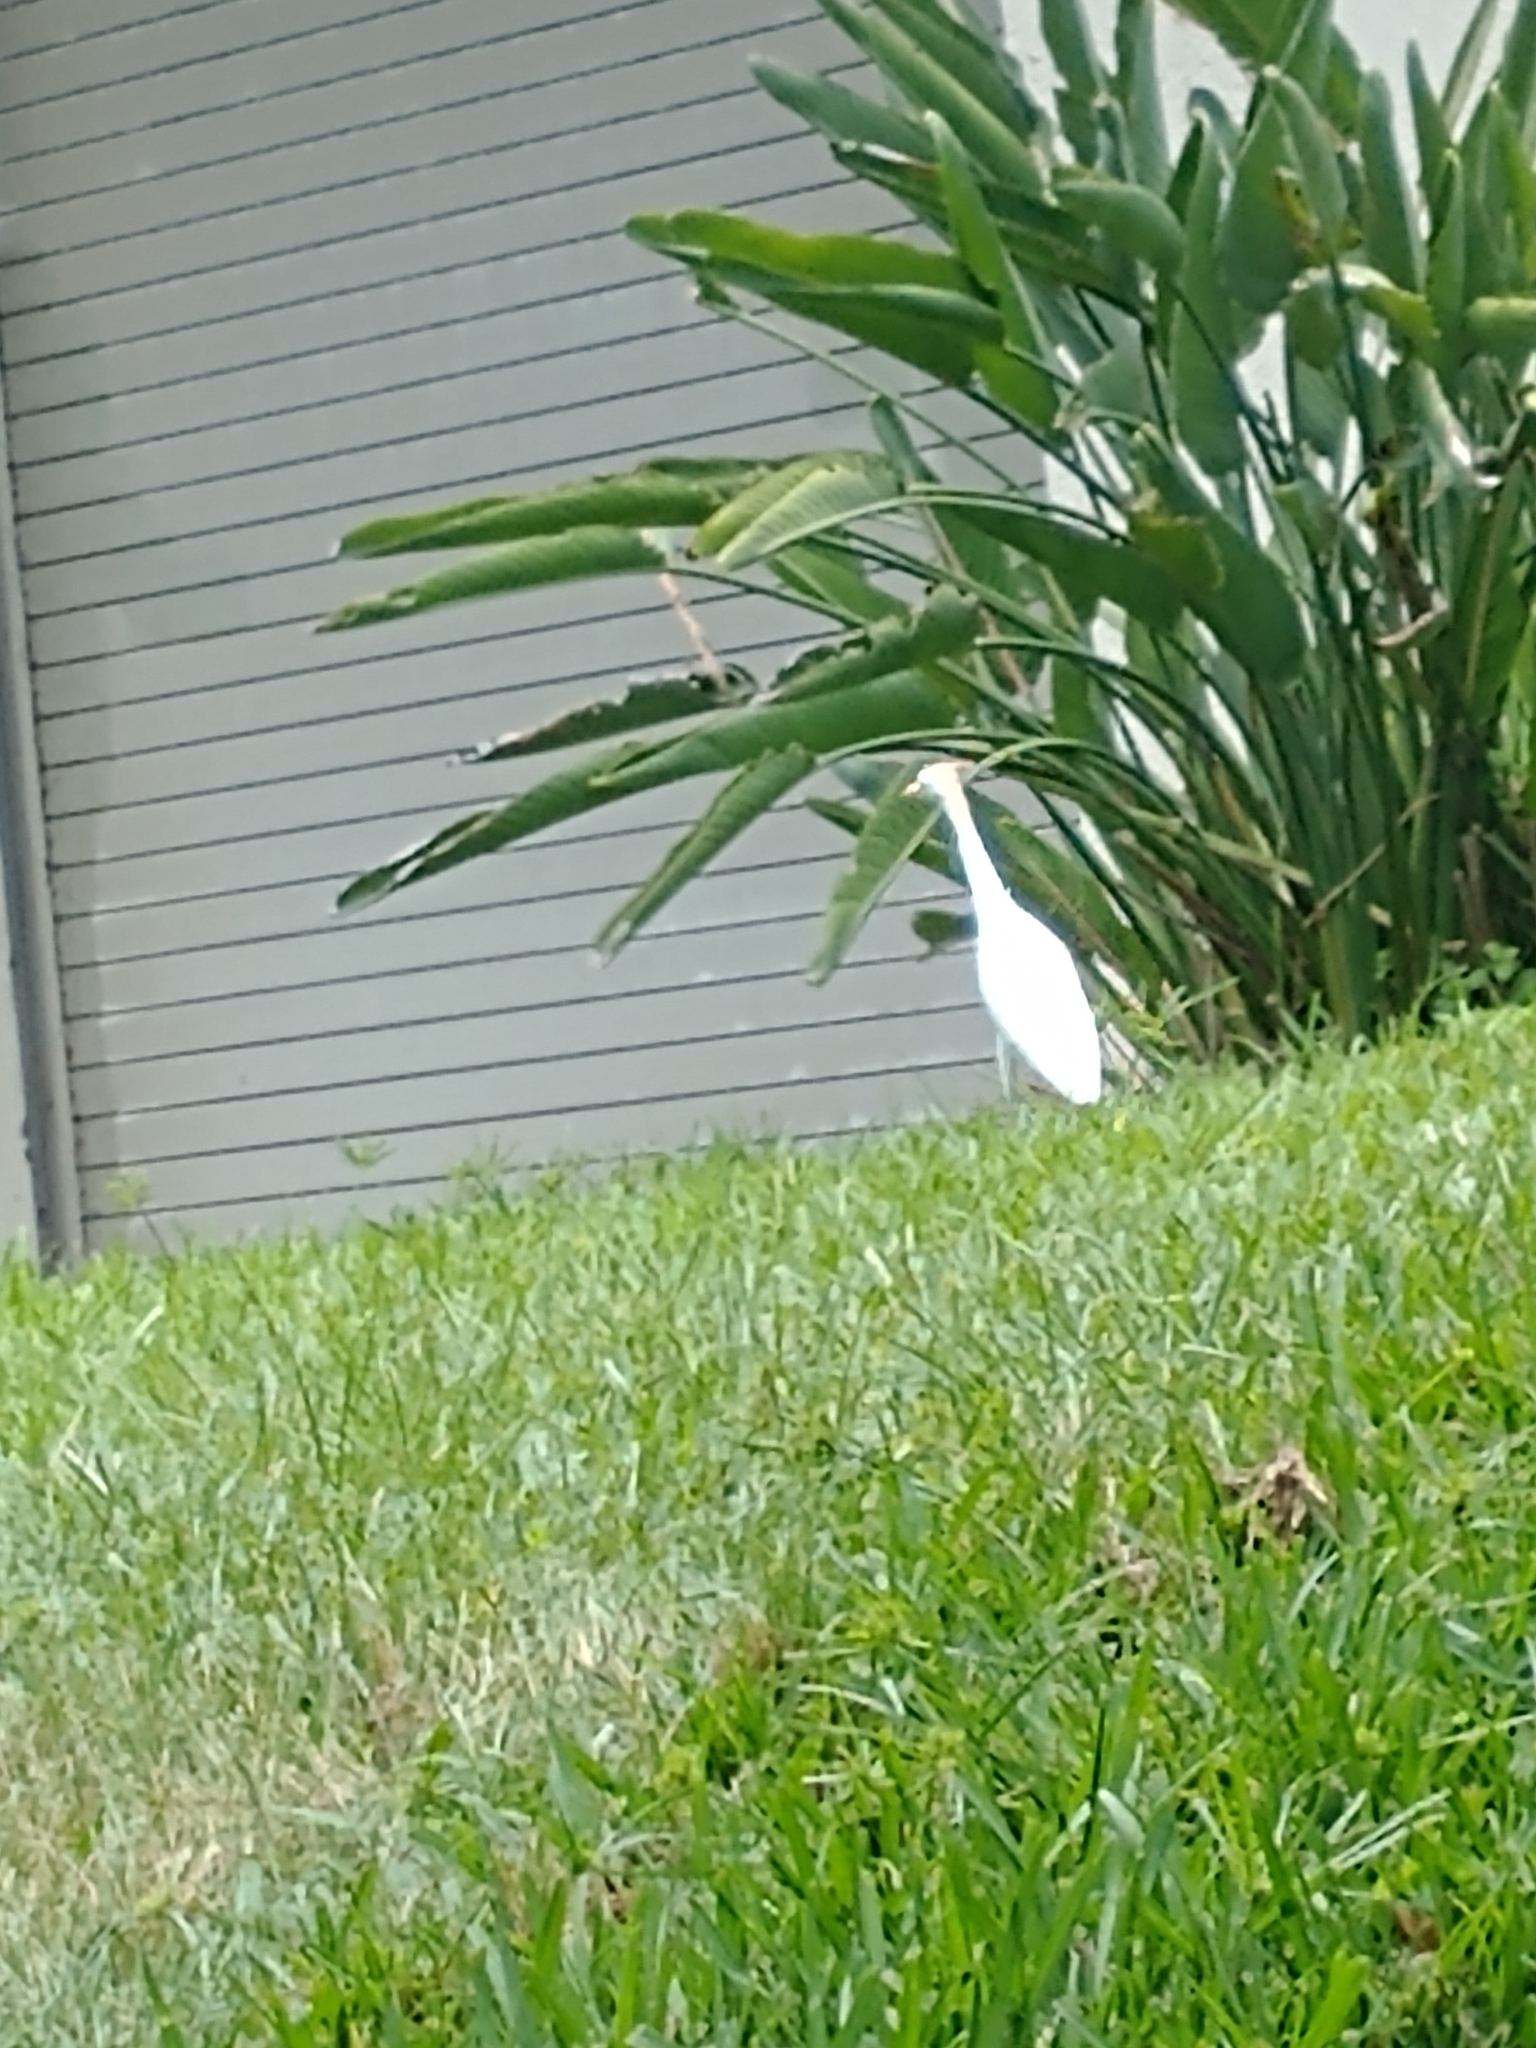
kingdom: Animalia
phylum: Chordata
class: Aves
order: Pelecaniformes
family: Ardeidae
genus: Bubulcus
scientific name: Bubulcus ibis
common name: Cattle egret
